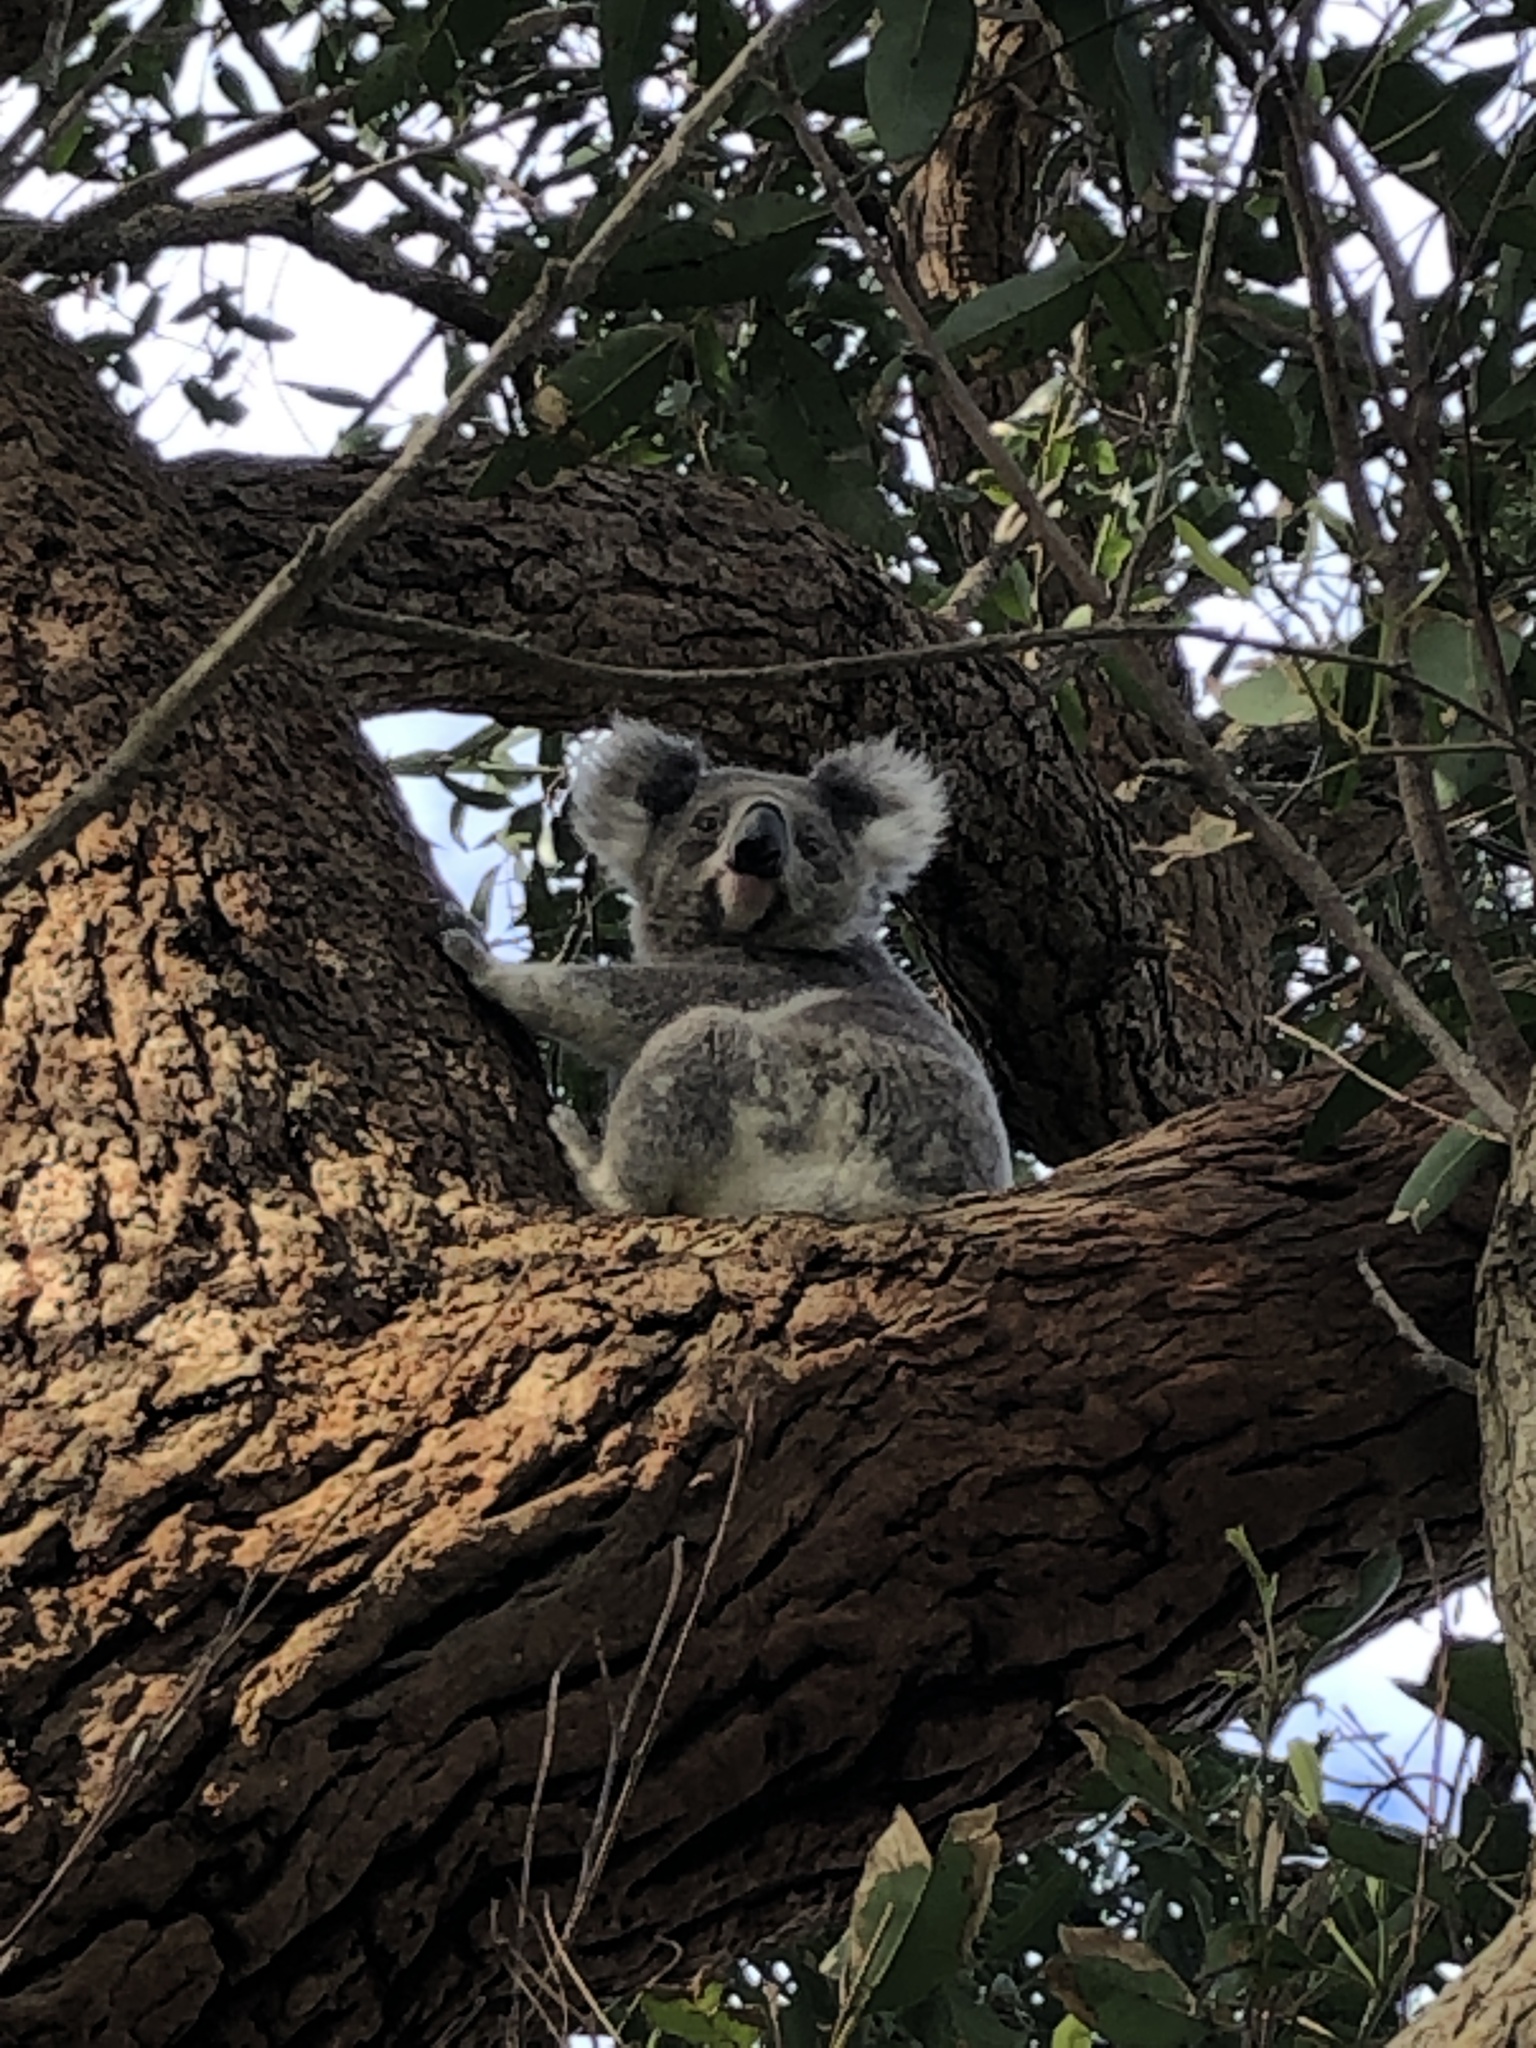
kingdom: Animalia
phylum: Chordata
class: Mammalia
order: Diprotodontia
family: Phascolarctidae
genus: Phascolarctos
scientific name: Phascolarctos cinereus
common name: Koala
